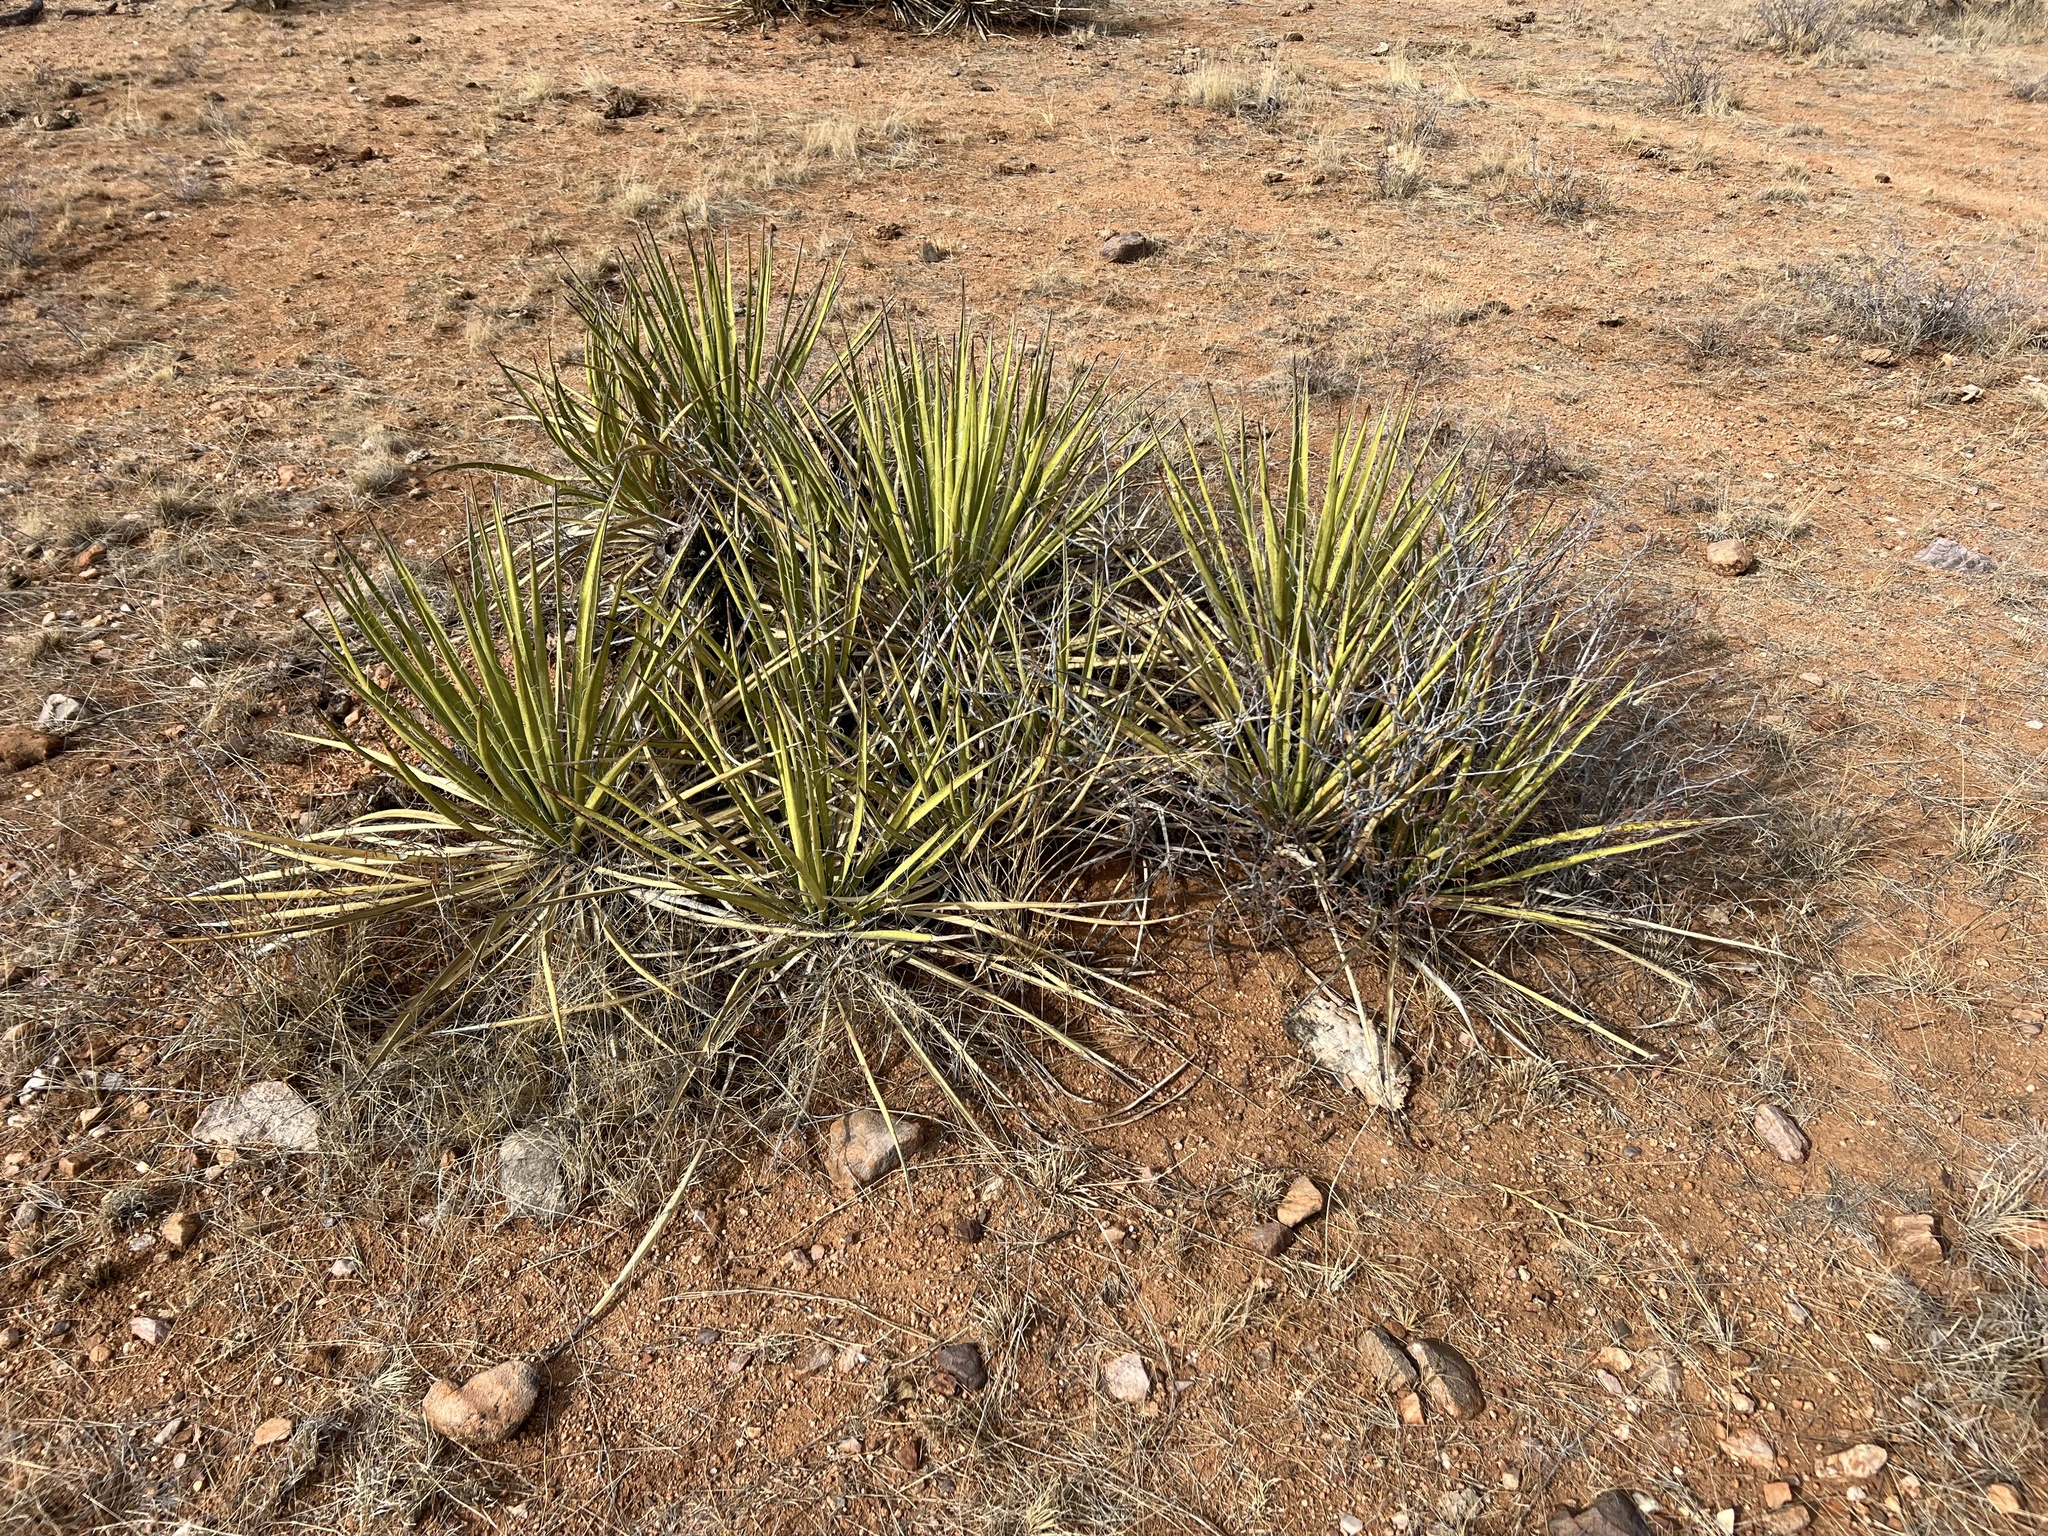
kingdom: Plantae
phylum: Tracheophyta
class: Liliopsida
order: Asparagales
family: Asparagaceae
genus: Yucca
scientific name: Yucca baccata
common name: Banana yucca
